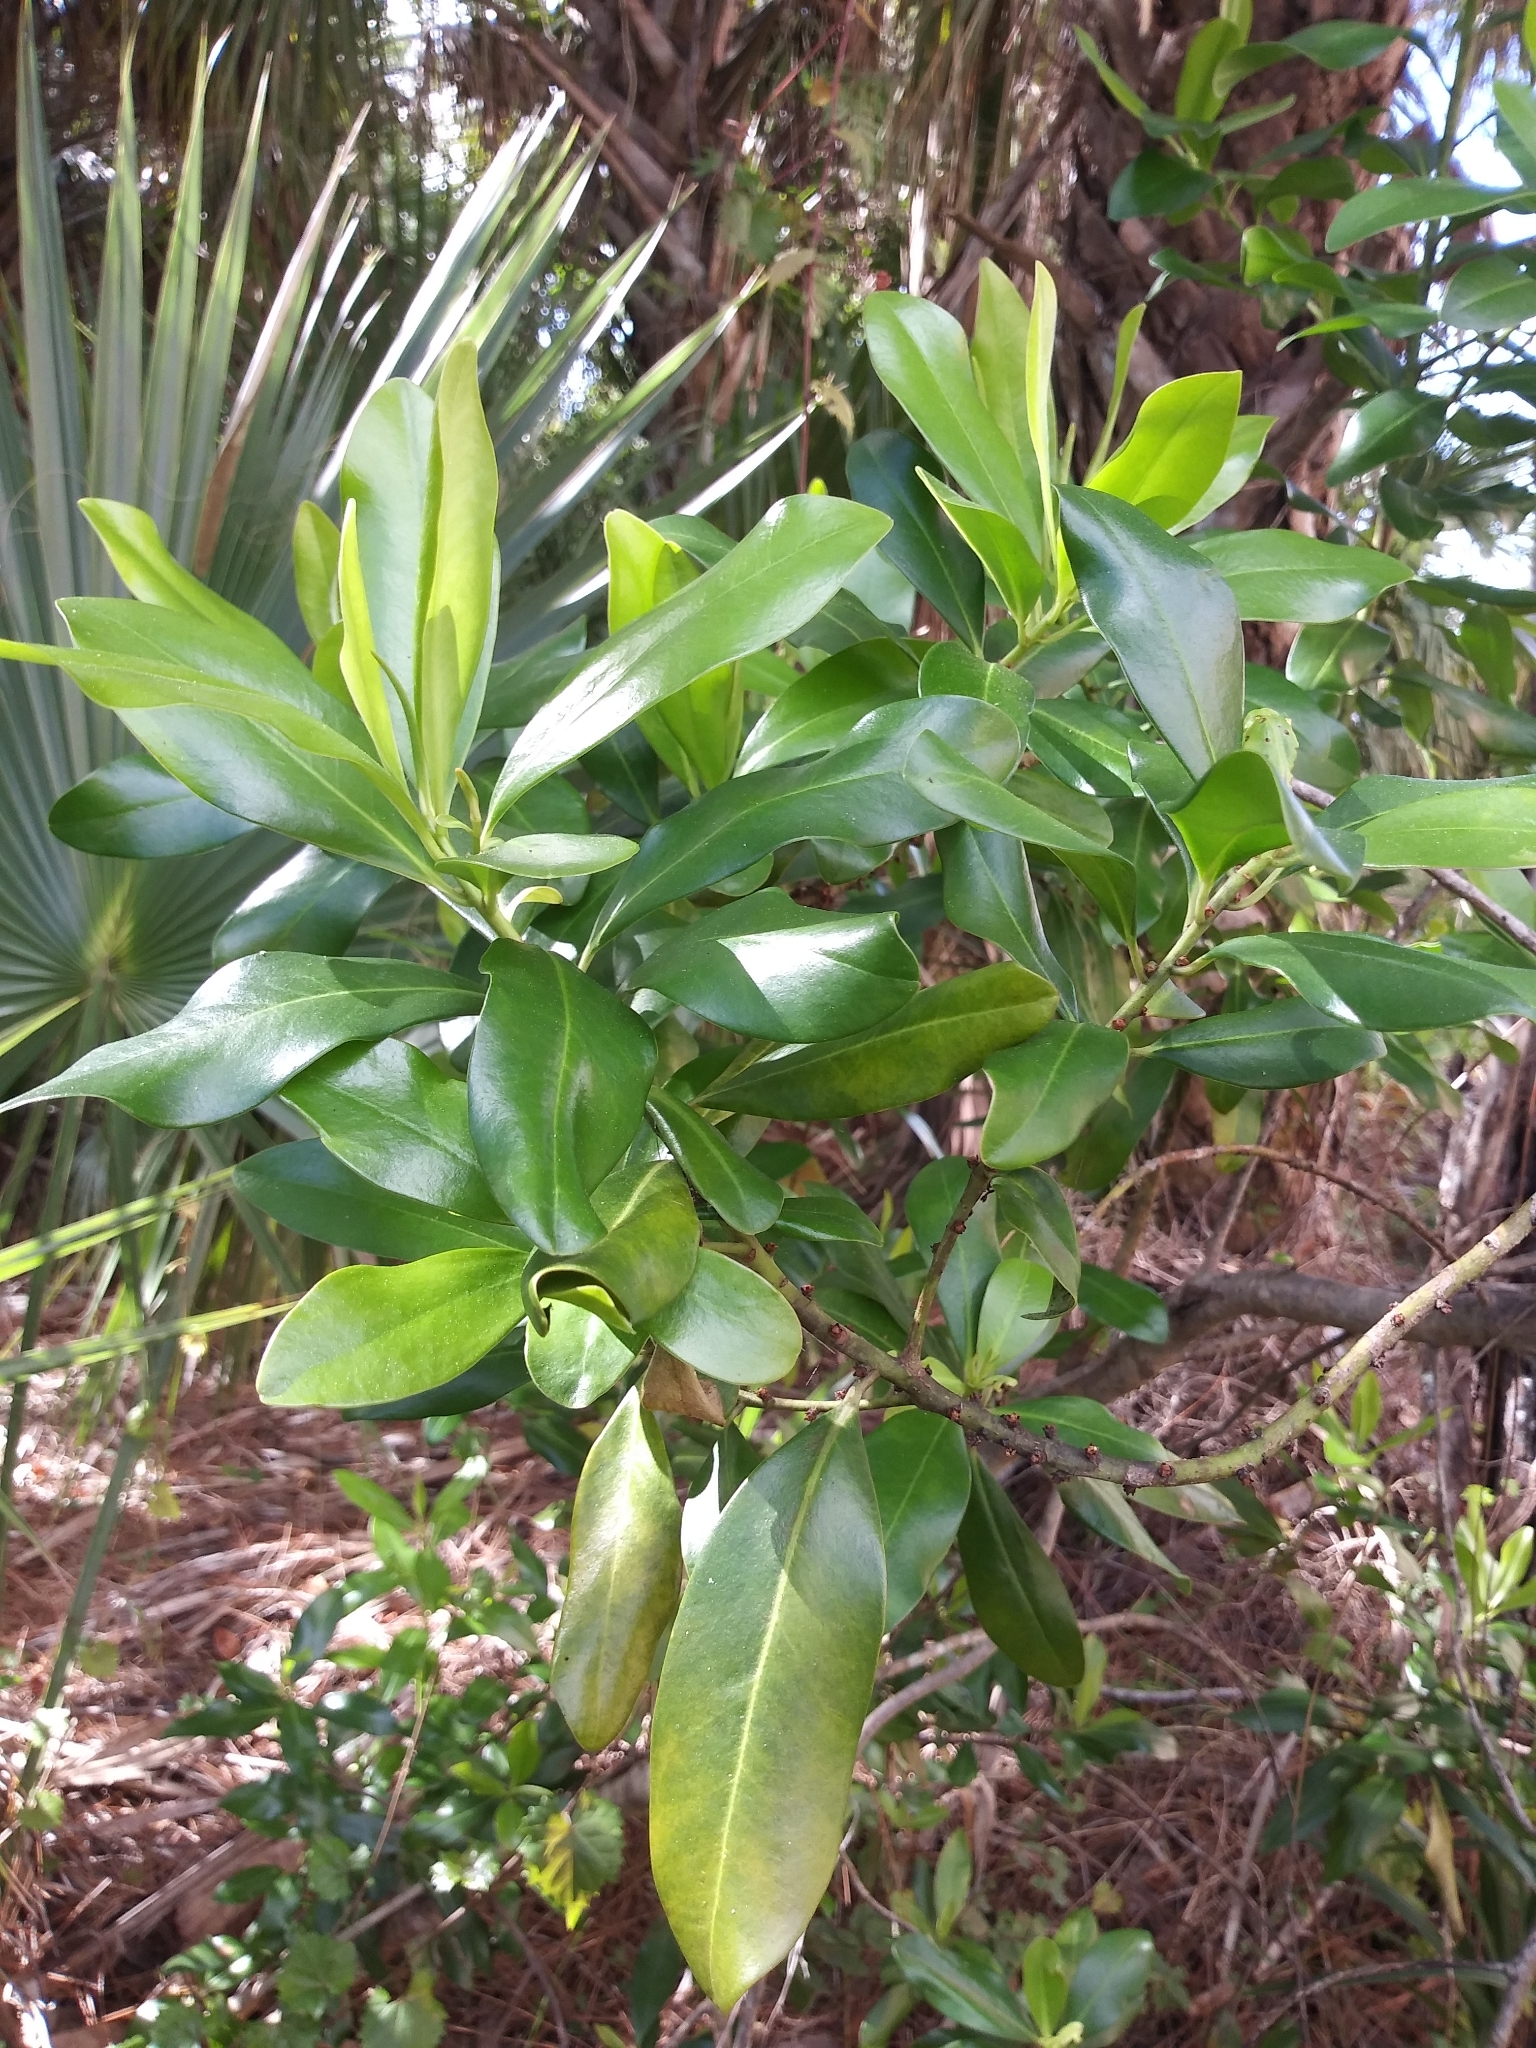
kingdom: Plantae
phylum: Tracheophyta
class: Magnoliopsida
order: Ericales
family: Primulaceae
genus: Myrsine
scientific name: Myrsine floridana
